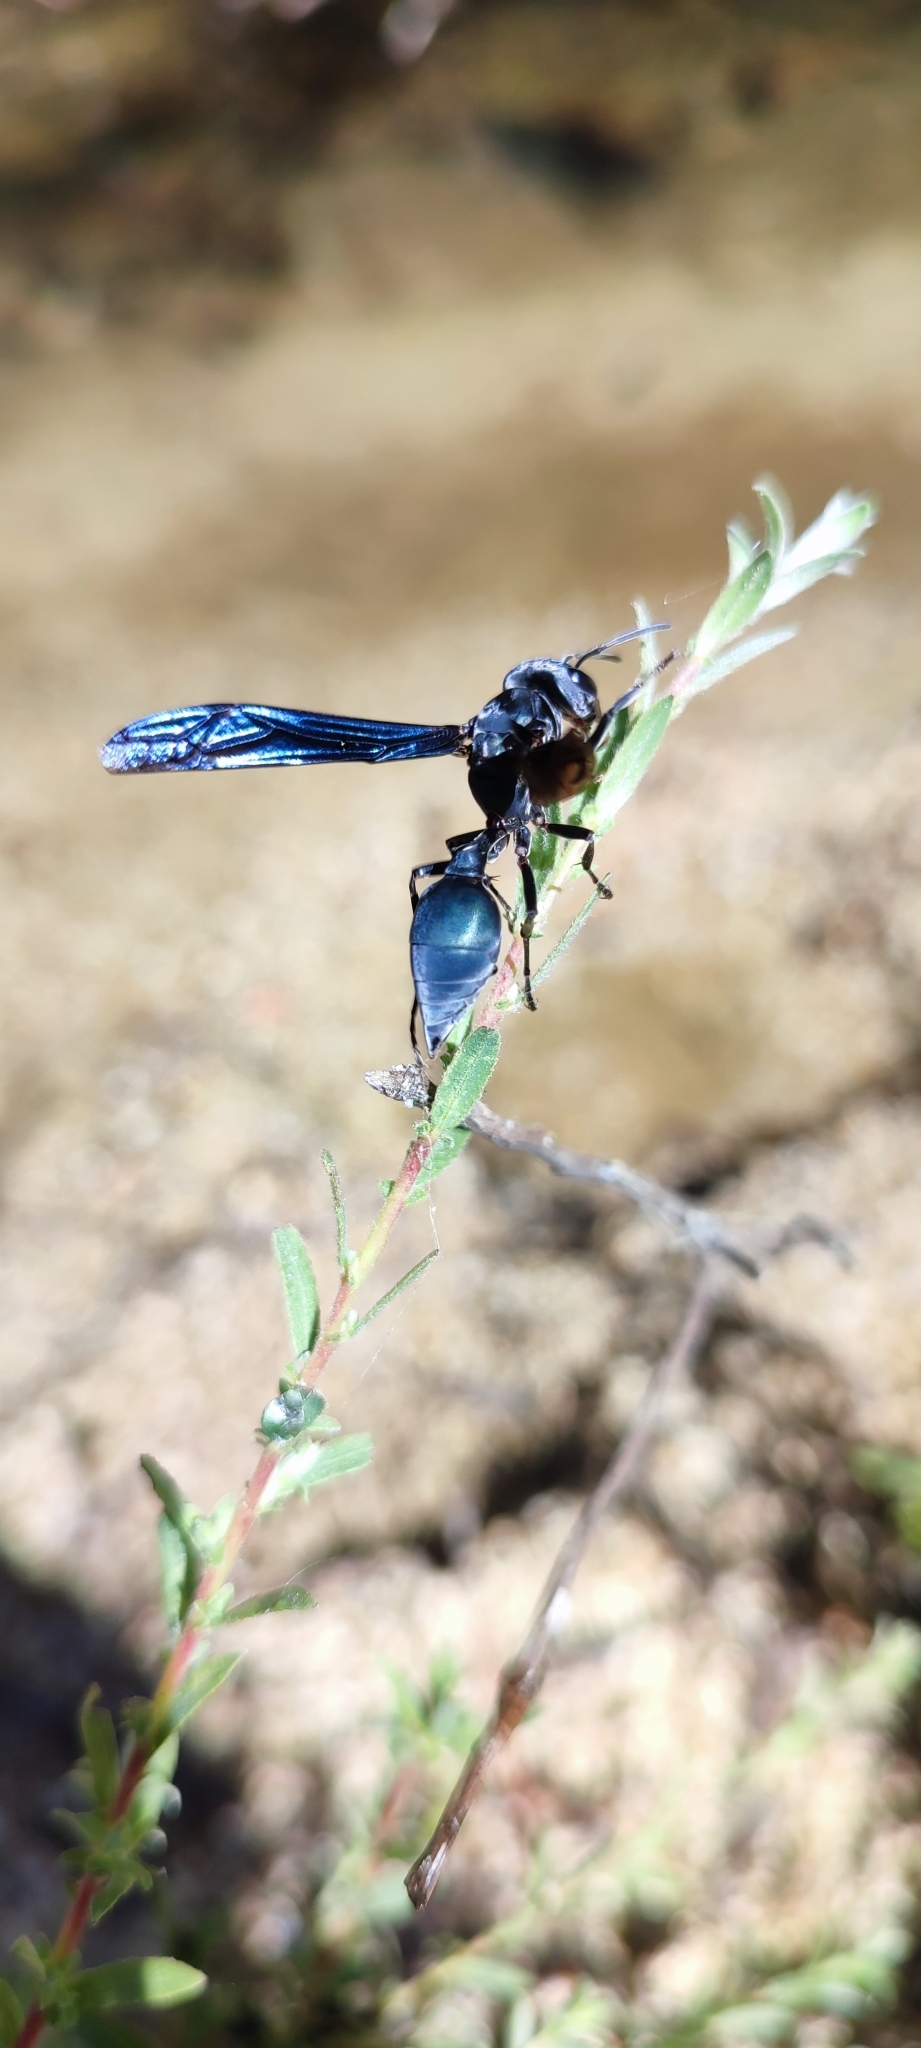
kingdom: Animalia
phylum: Arthropoda
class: Insecta
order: Hymenoptera
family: Vespidae
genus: Synoeca
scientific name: Synoeca septentrionalis
